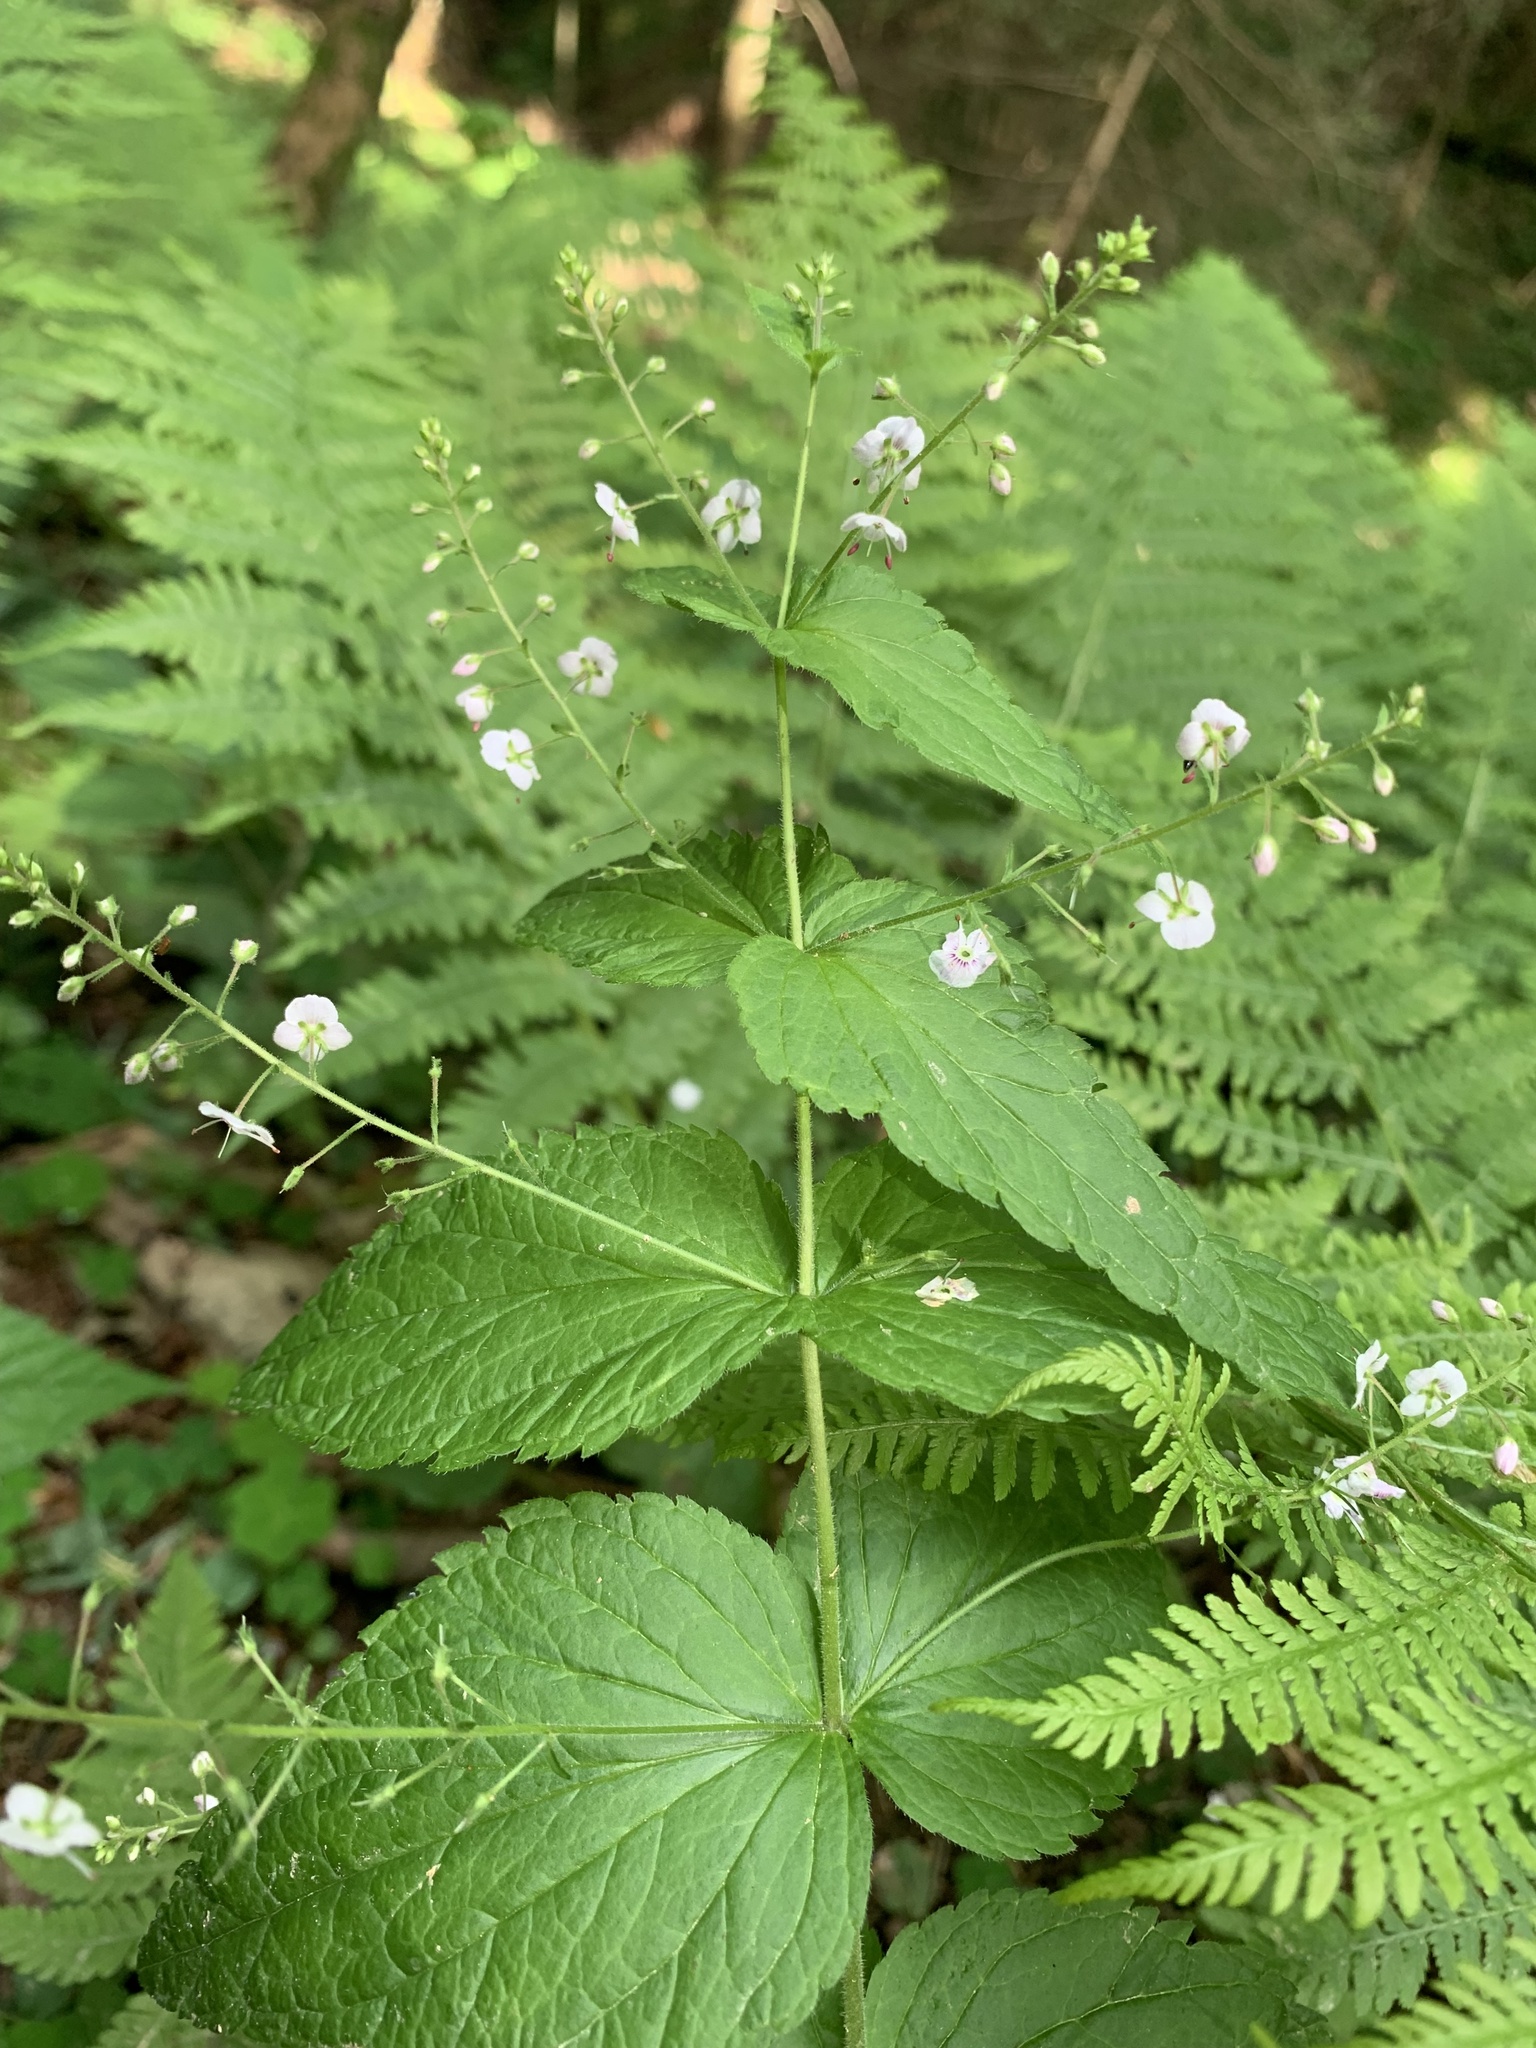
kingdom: Plantae
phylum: Tracheophyta
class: Magnoliopsida
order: Lamiales
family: Plantaginaceae
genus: Veronica
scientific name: Veronica urticifolia
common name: Nettle-leaf speedwell
